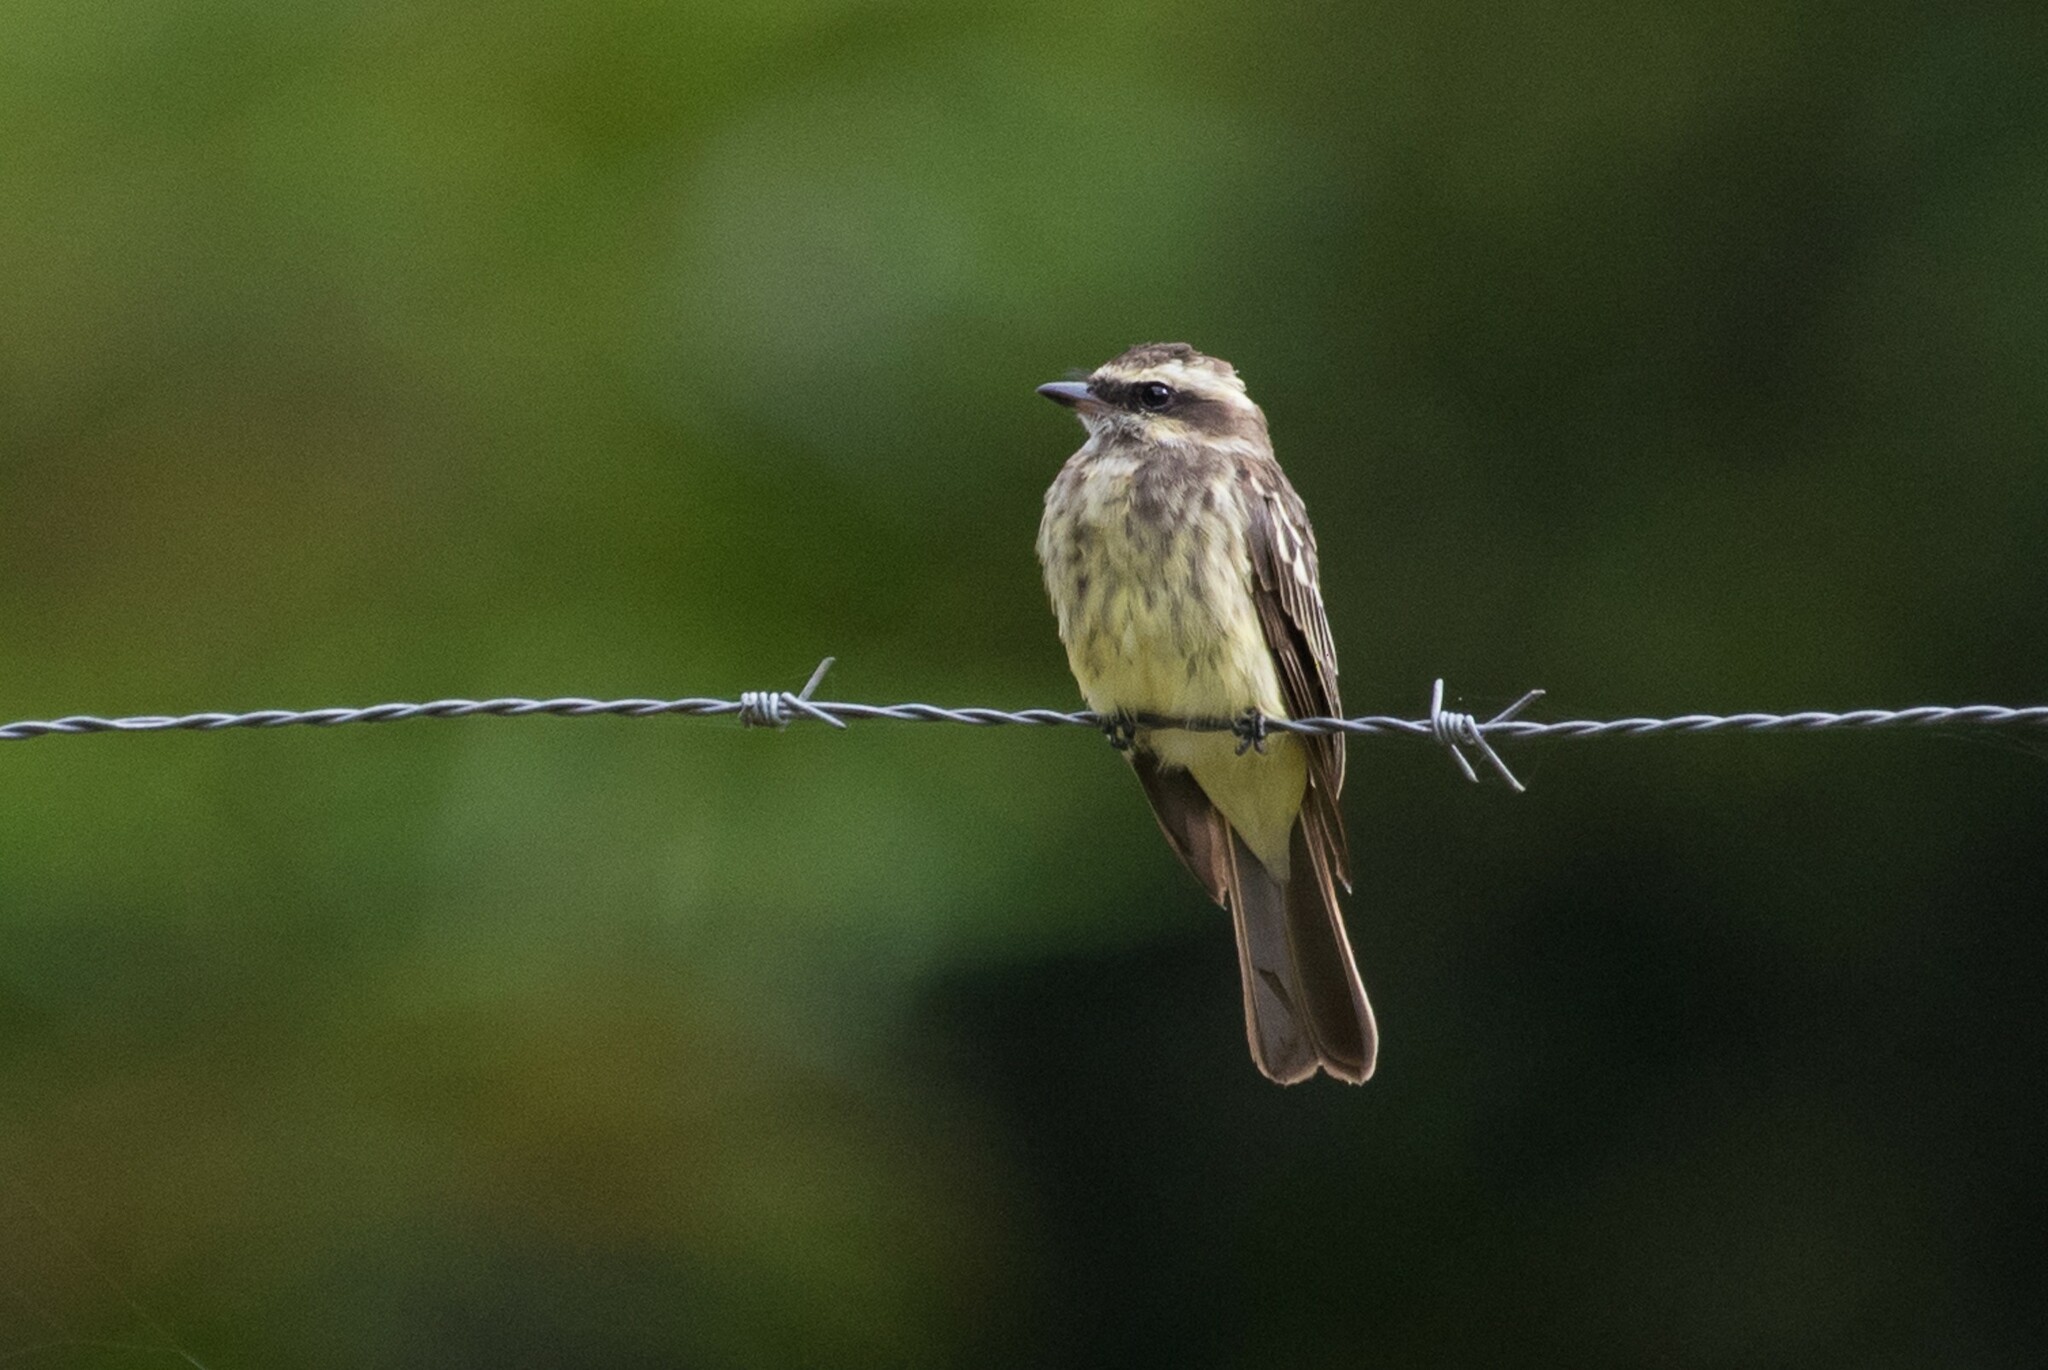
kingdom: Animalia
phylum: Chordata
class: Aves
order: Passeriformes
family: Tyrannidae
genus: Empidonomus
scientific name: Empidonomus varius
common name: Variegated flycatcher
